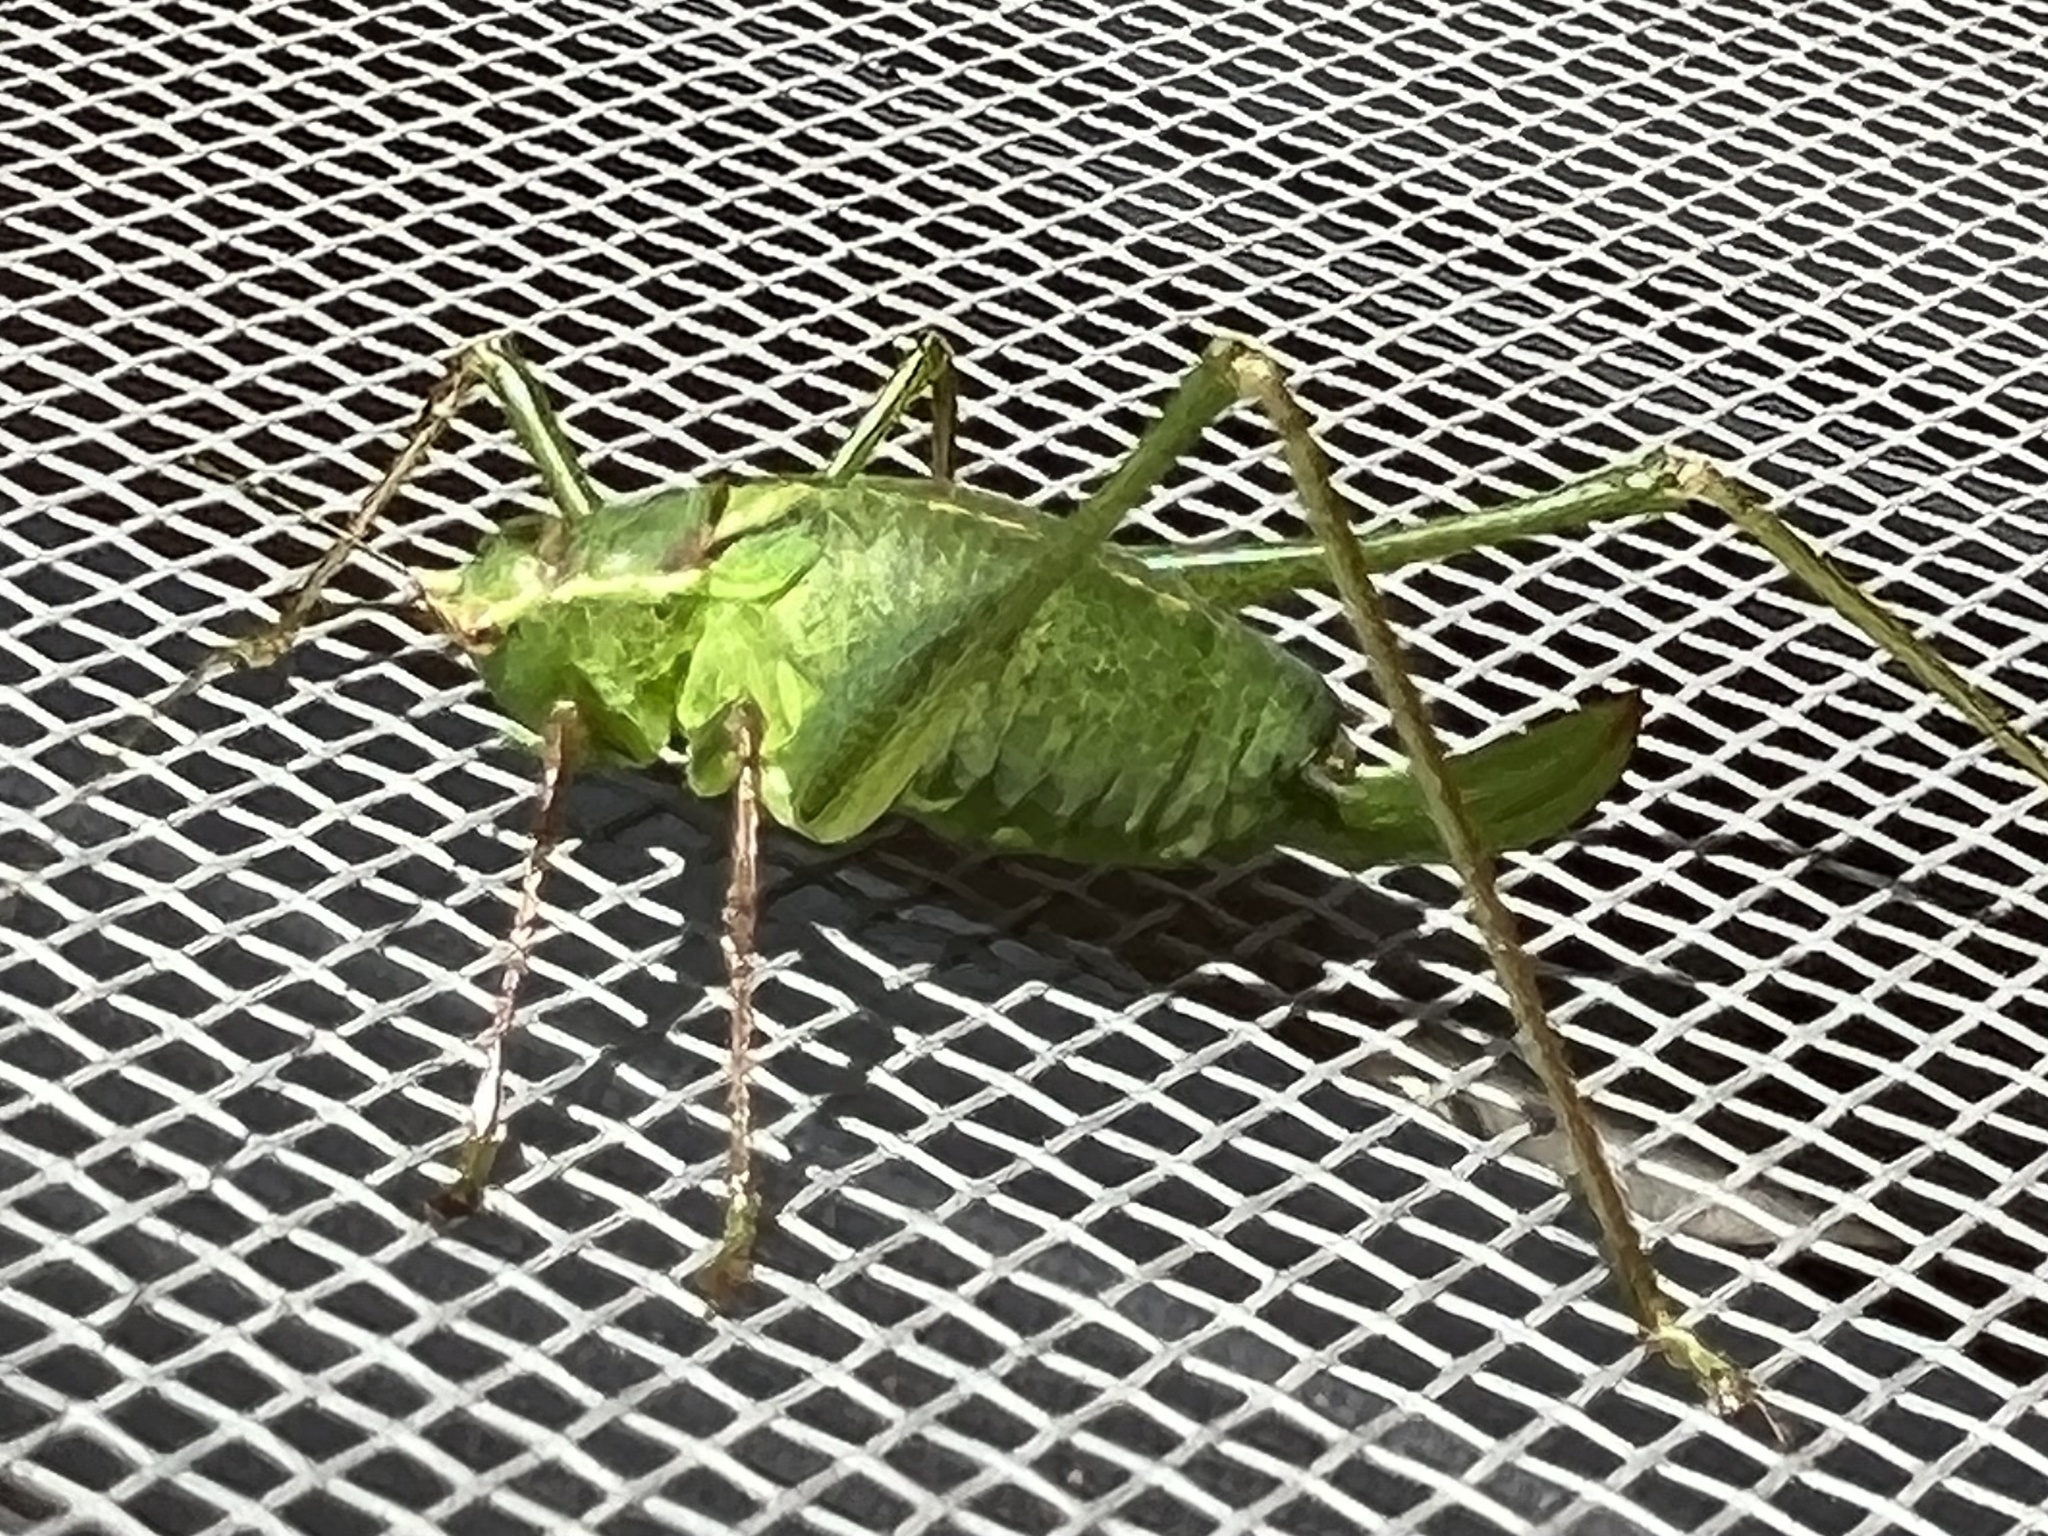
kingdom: Animalia
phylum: Arthropoda
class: Insecta
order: Orthoptera
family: Tettigoniidae
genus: Leptophyes
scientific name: Leptophyes punctatissima
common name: Speckled bush-cricket
